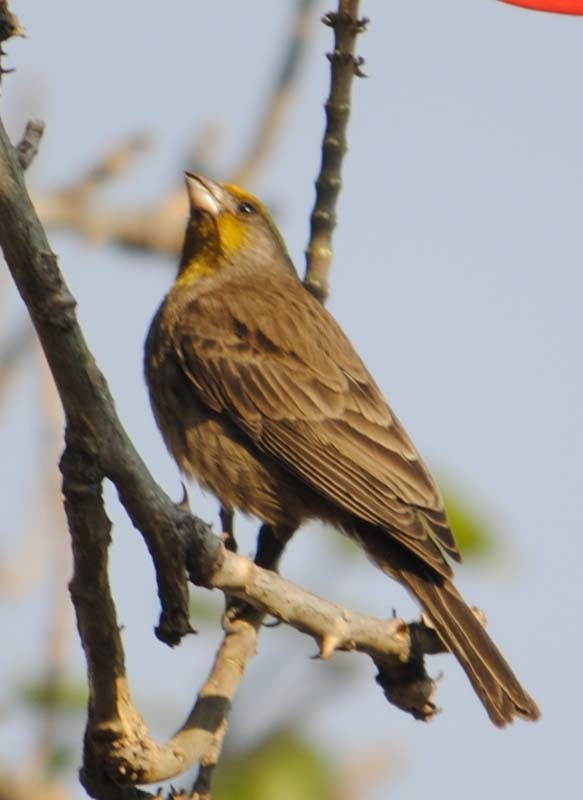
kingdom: Animalia
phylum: Chordata
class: Aves
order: Passeriformes
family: Fringillidae
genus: Haemorhous
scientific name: Haemorhous mexicanus
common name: House finch
